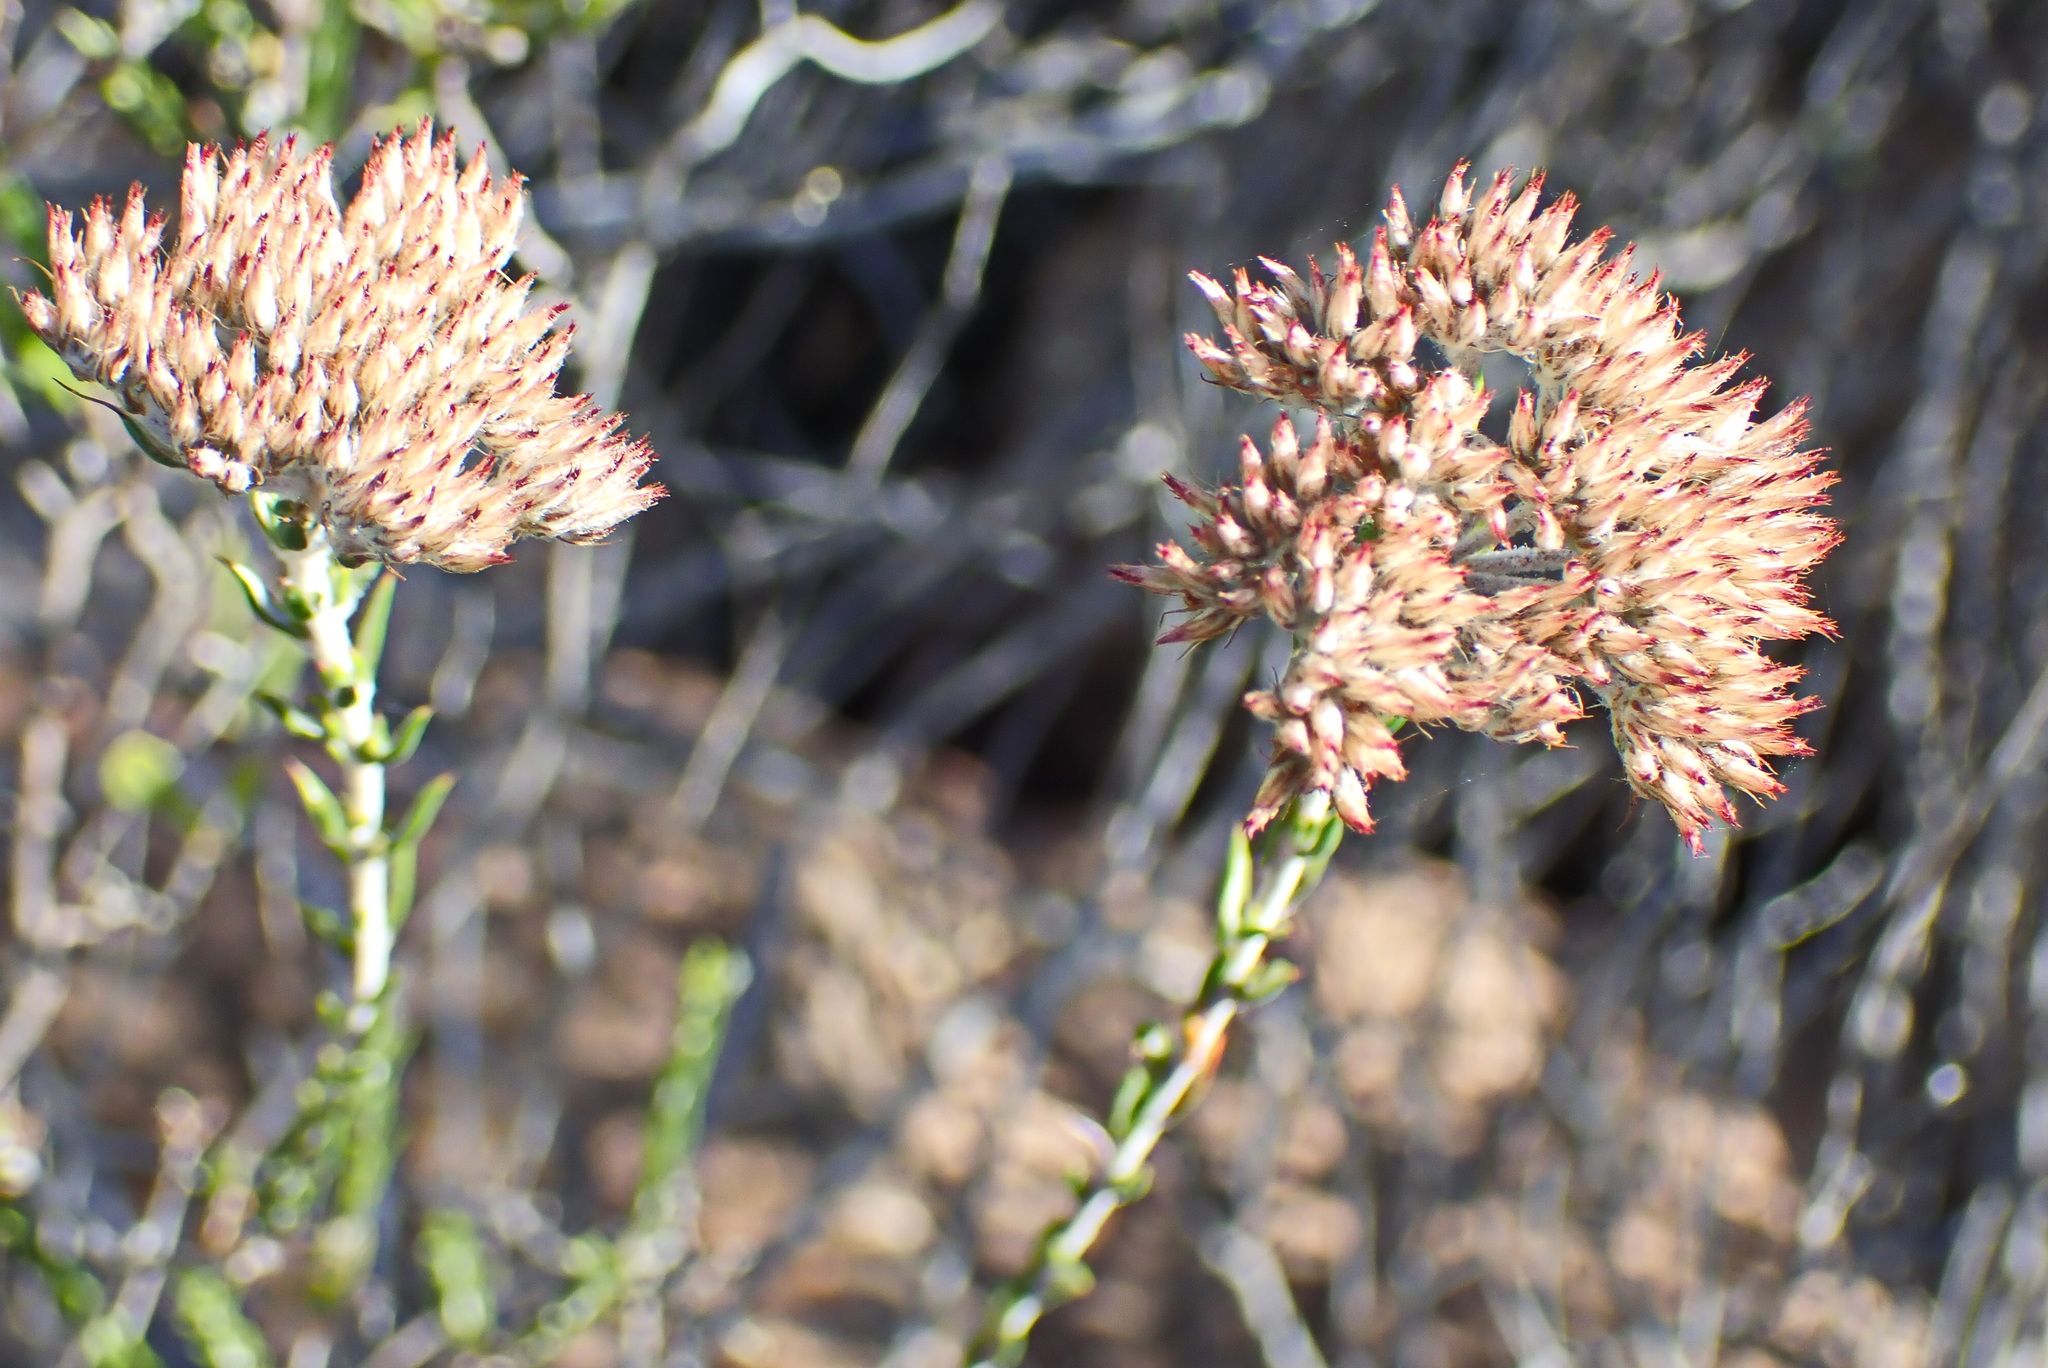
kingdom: Plantae
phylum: Tracheophyta
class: Magnoliopsida
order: Asterales
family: Asteraceae
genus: Metalasia
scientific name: Metalasia pungens
